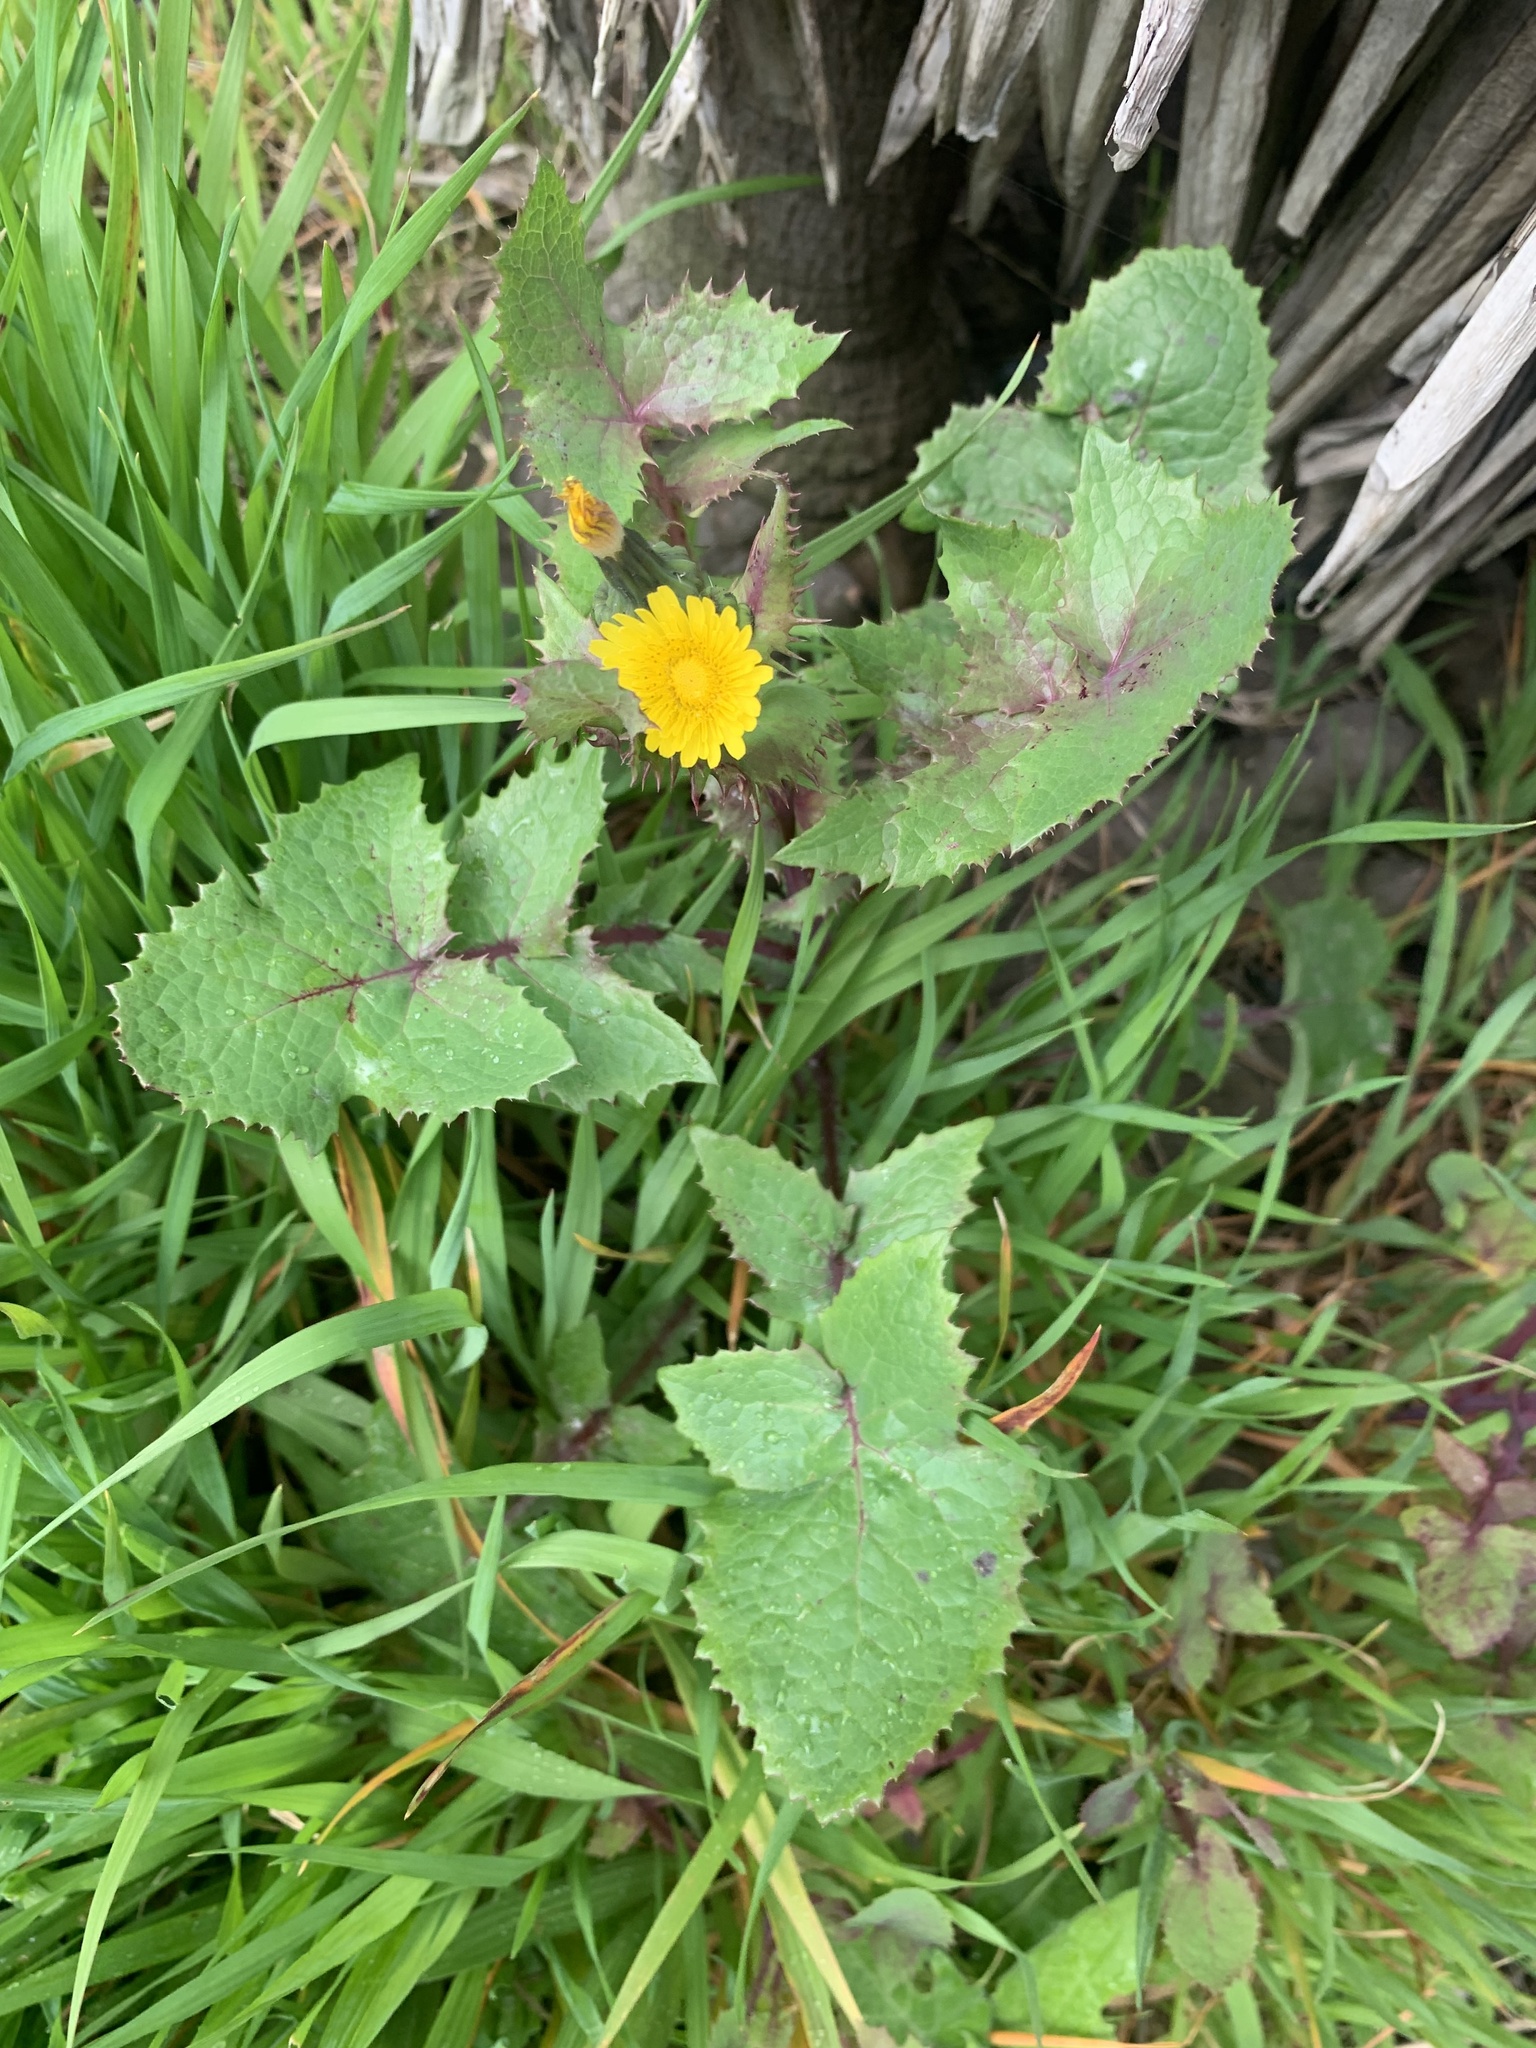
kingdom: Plantae
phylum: Tracheophyta
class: Magnoliopsida
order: Asterales
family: Asteraceae
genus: Sonchus
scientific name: Sonchus oleraceus
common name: Common sowthistle
